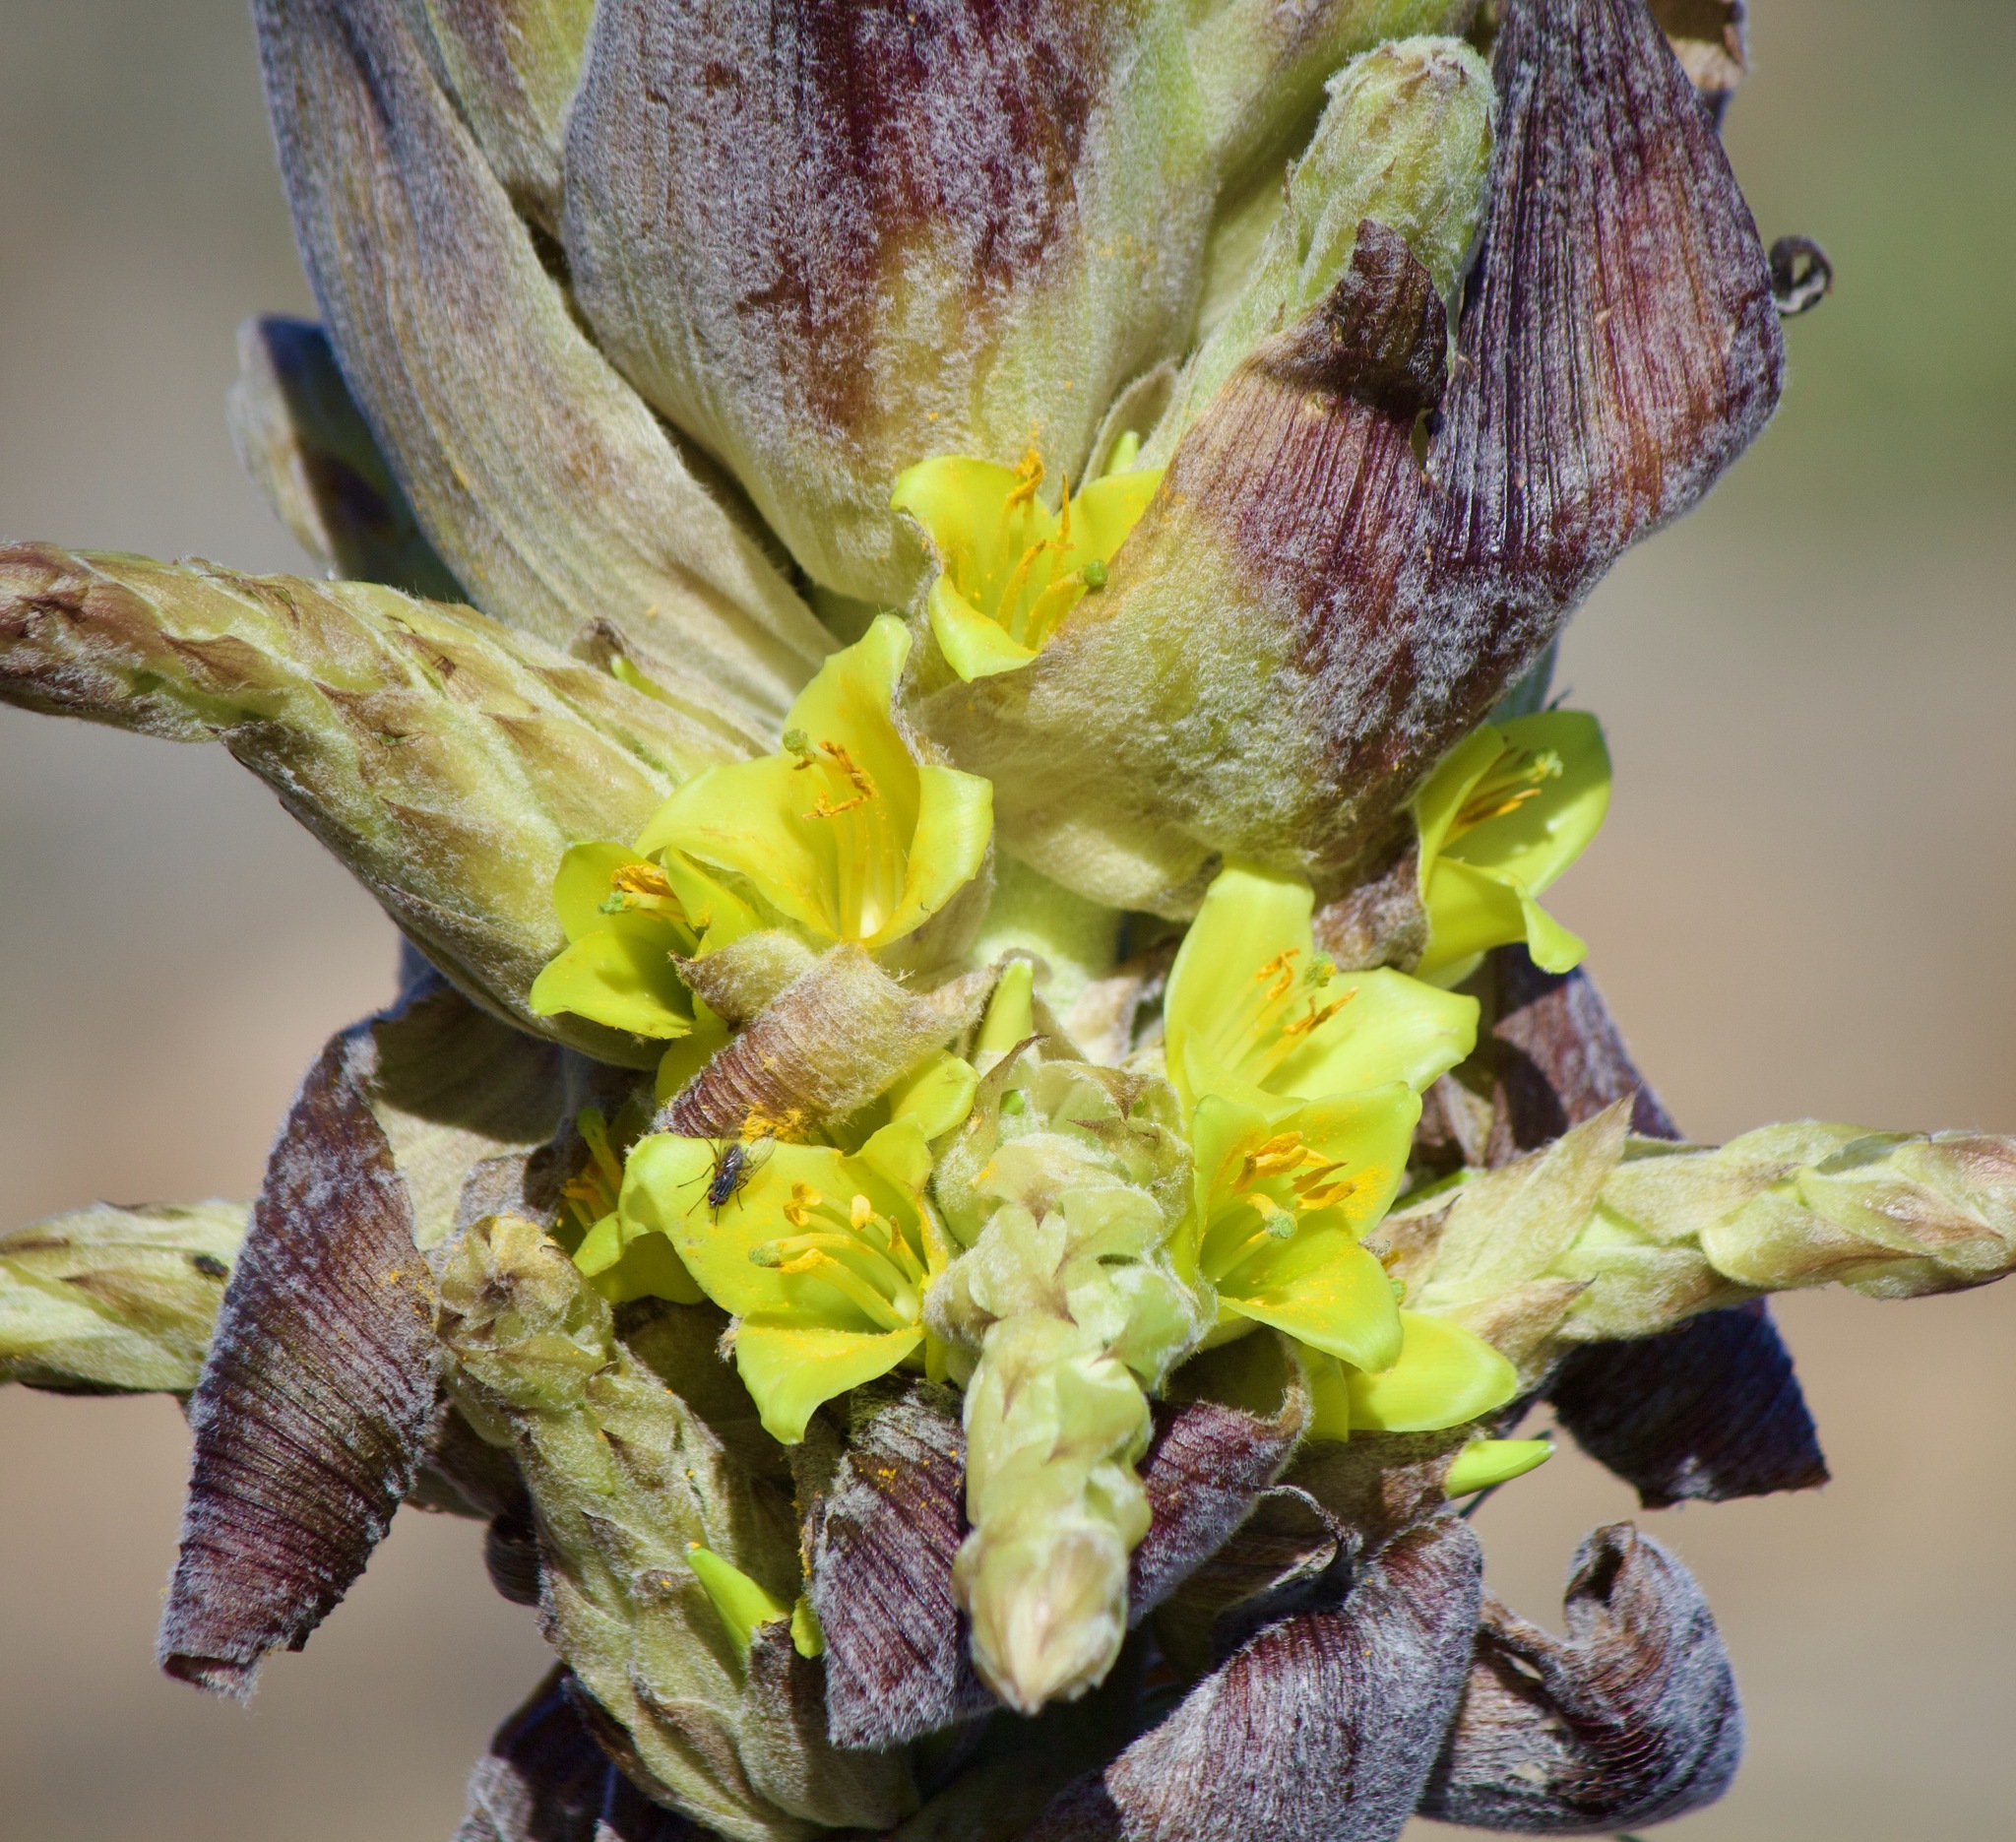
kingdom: Plantae
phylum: Tracheophyta
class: Liliopsida
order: Poales
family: Bromeliaceae
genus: Puya
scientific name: Puya chilensis
